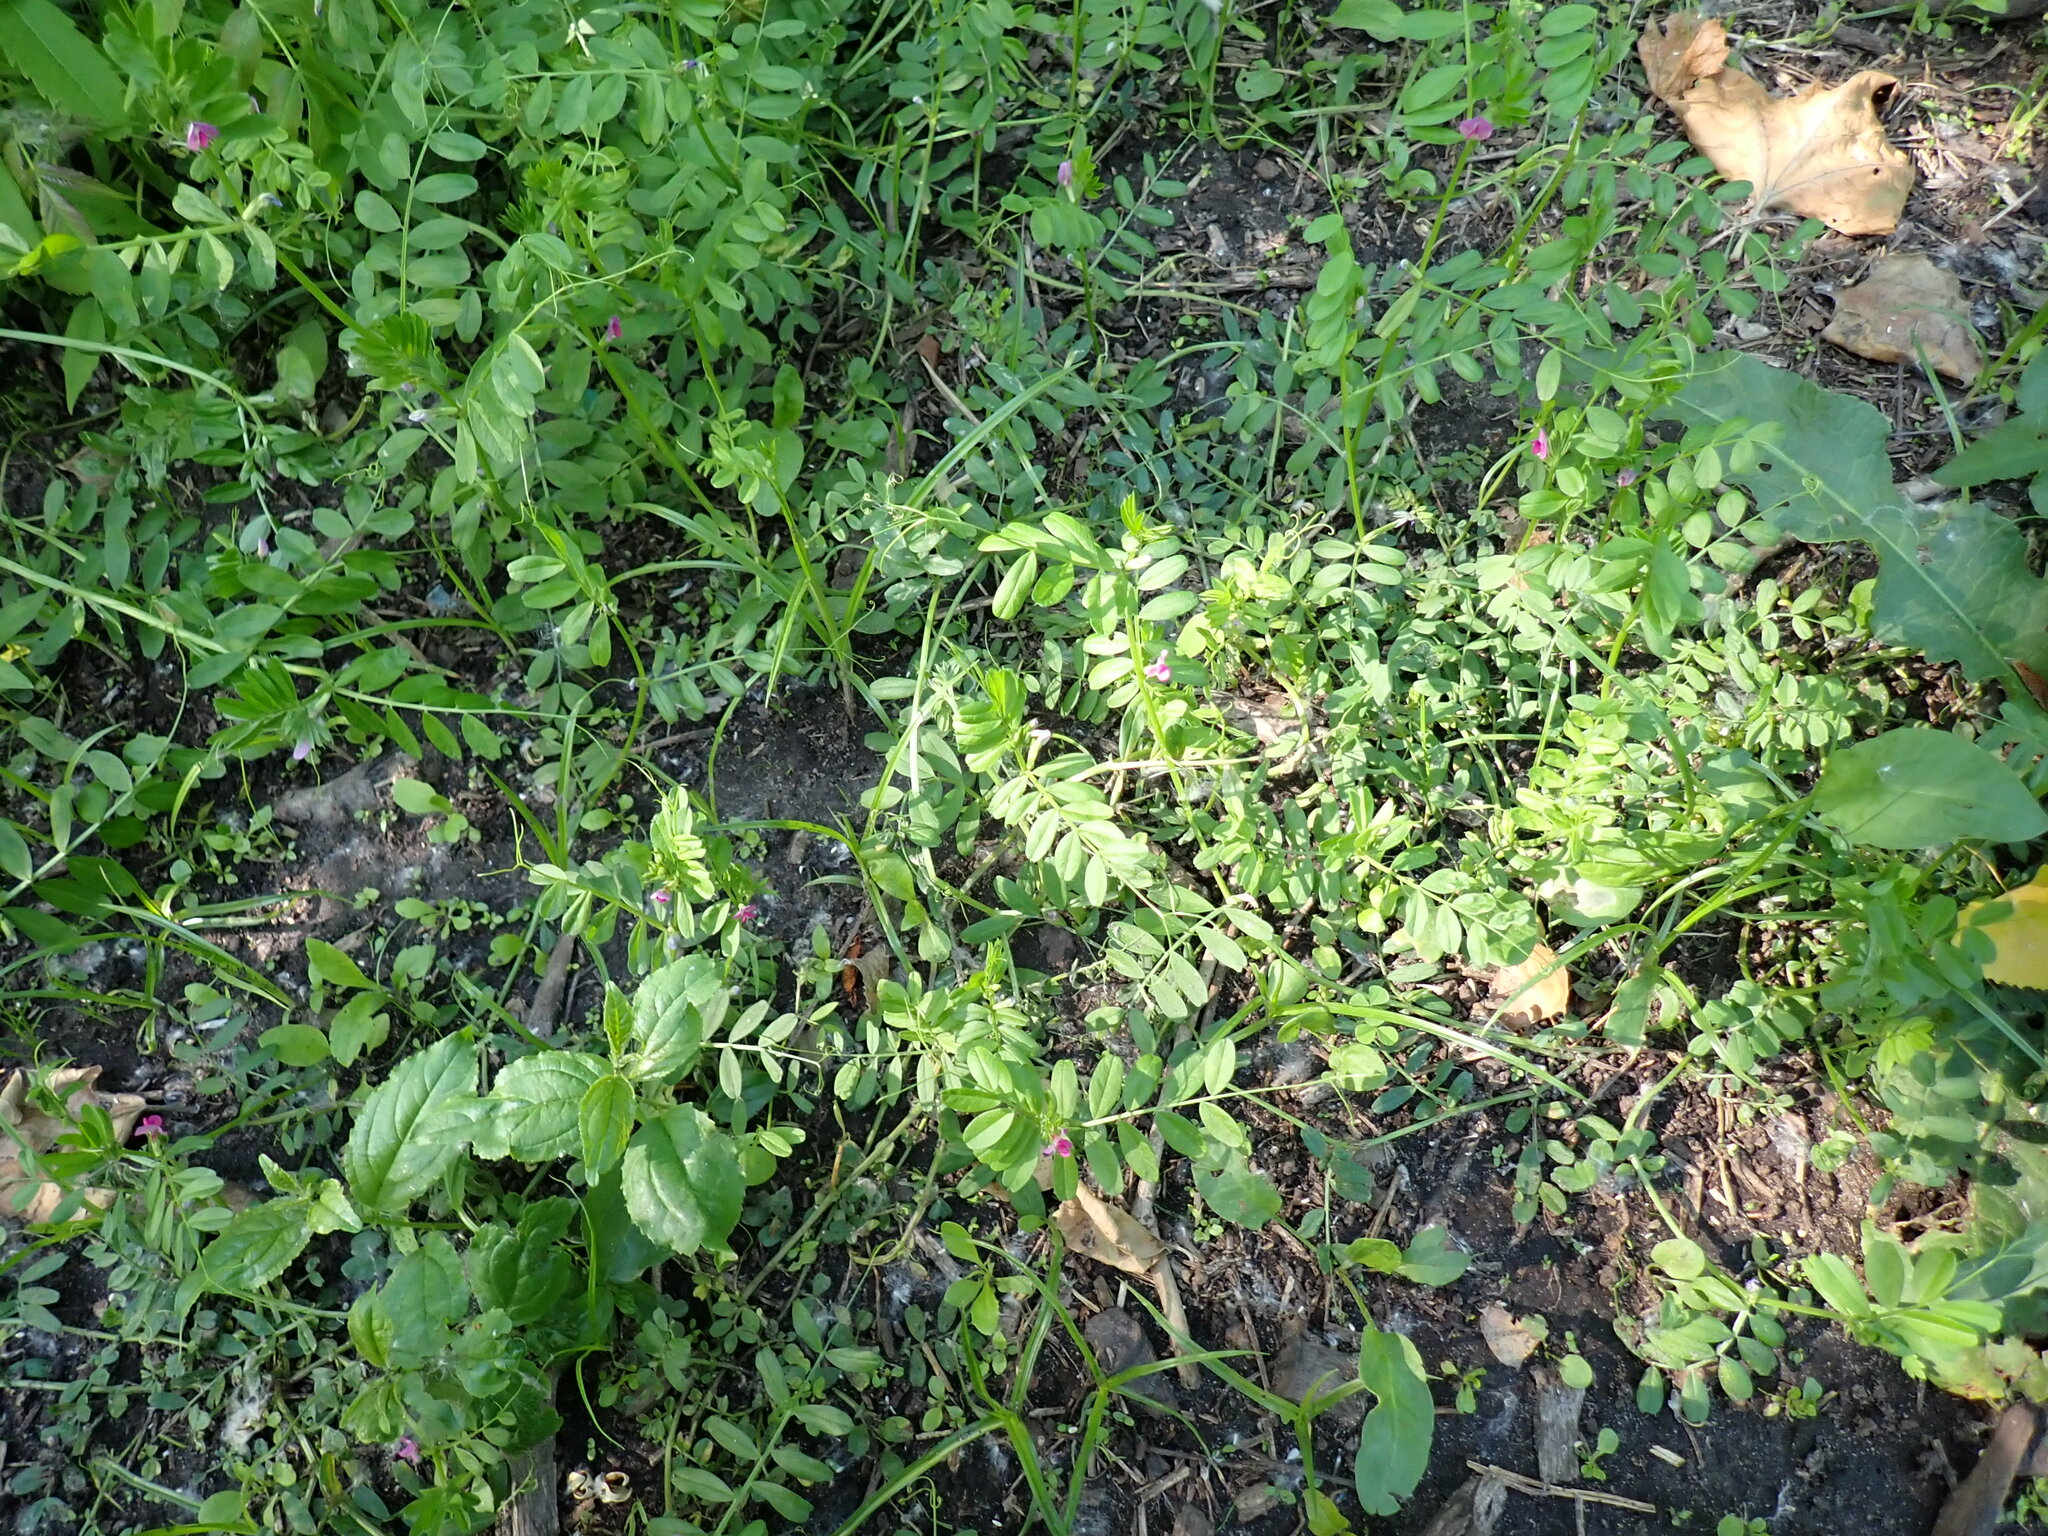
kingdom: Plantae
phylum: Tracheophyta
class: Magnoliopsida
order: Fabales
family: Fabaceae
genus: Vicia
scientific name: Vicia sativa
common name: Garden vetch
